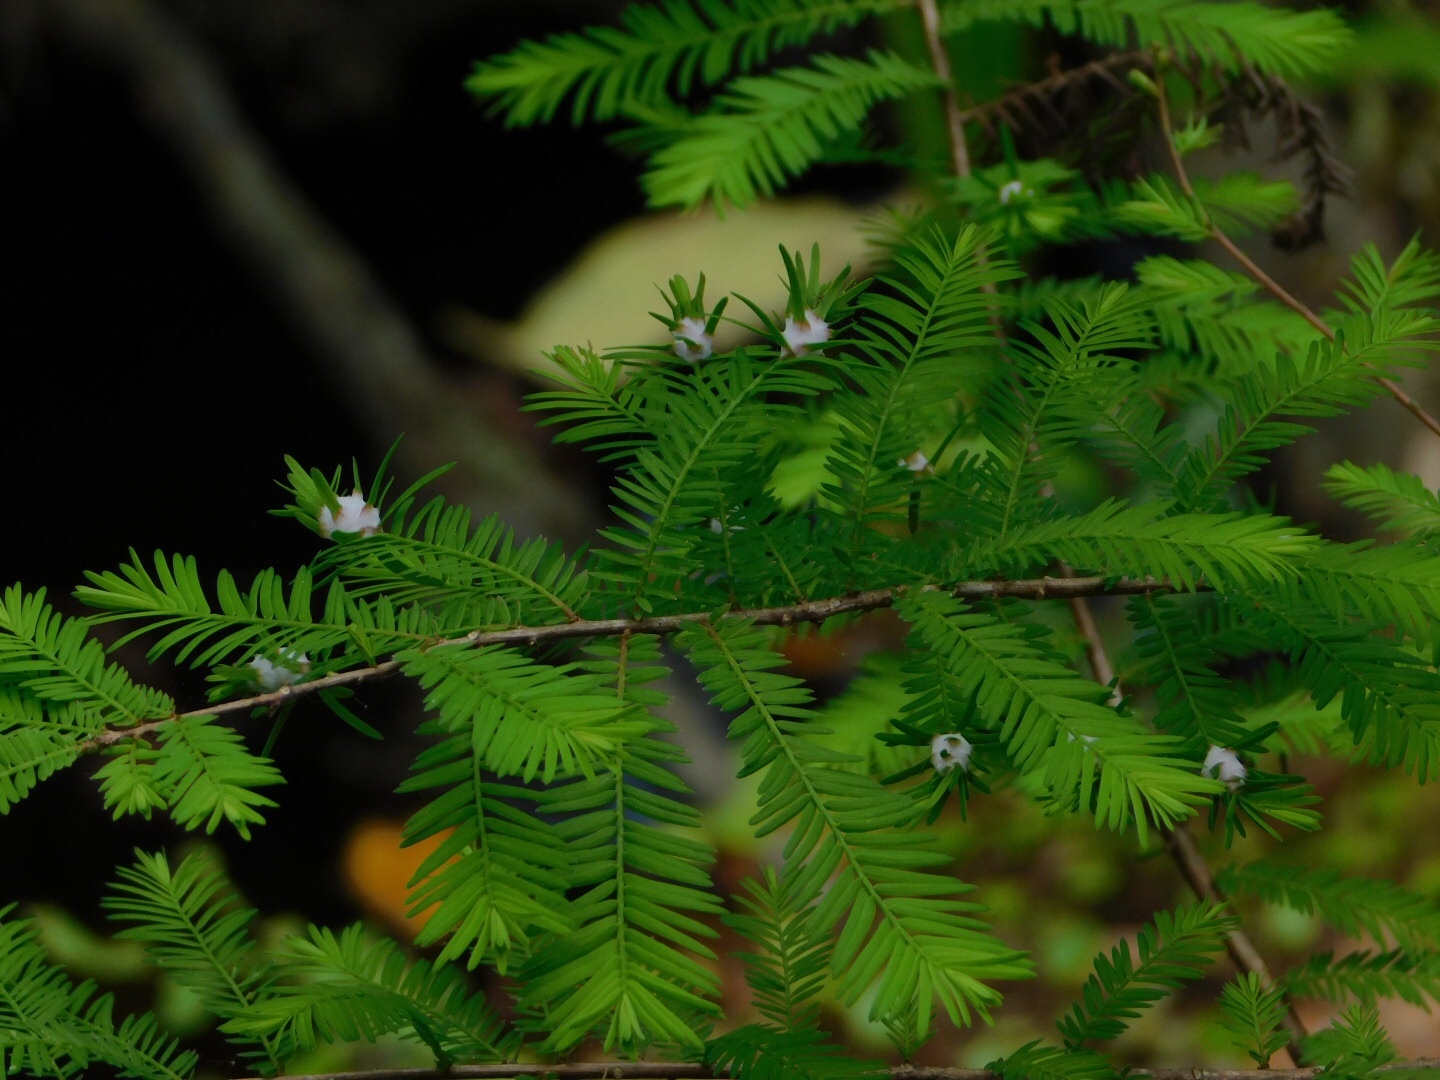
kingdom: Animalia
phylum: Arthropoda
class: Insecta
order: Diptera
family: Cecidomyiidae
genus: Taxodiomyia
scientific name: Taxodiomyia cupressiananassa
